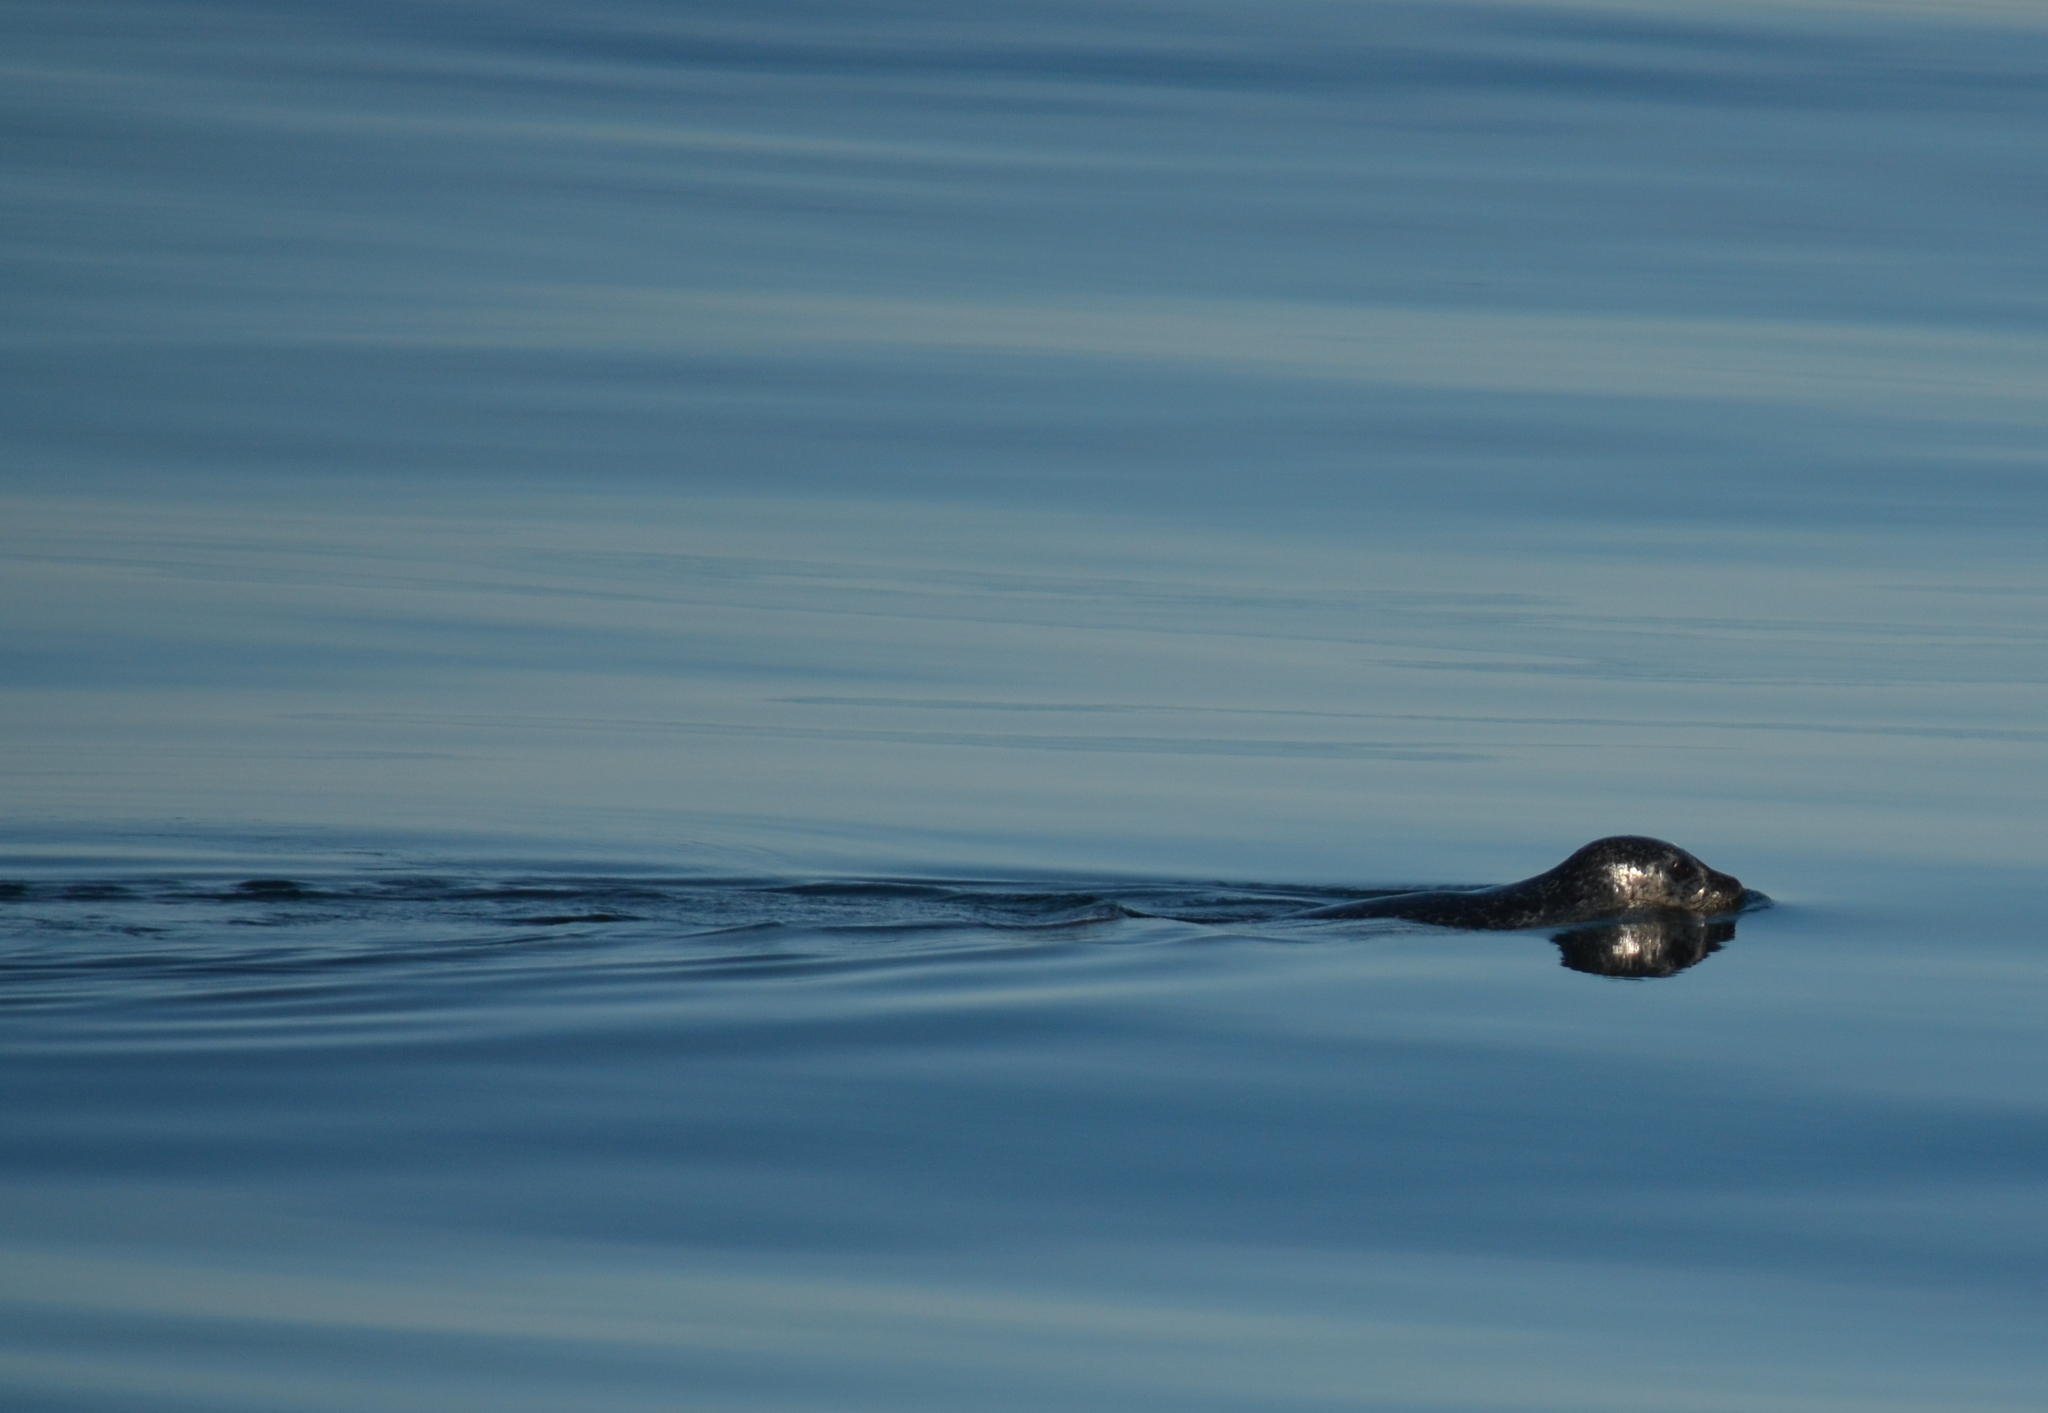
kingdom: Animalia
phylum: Chordata
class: Mammalia
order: Carnivora
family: Phocidae
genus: Phoca
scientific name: Phoca vitulina
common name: Harbor seal
